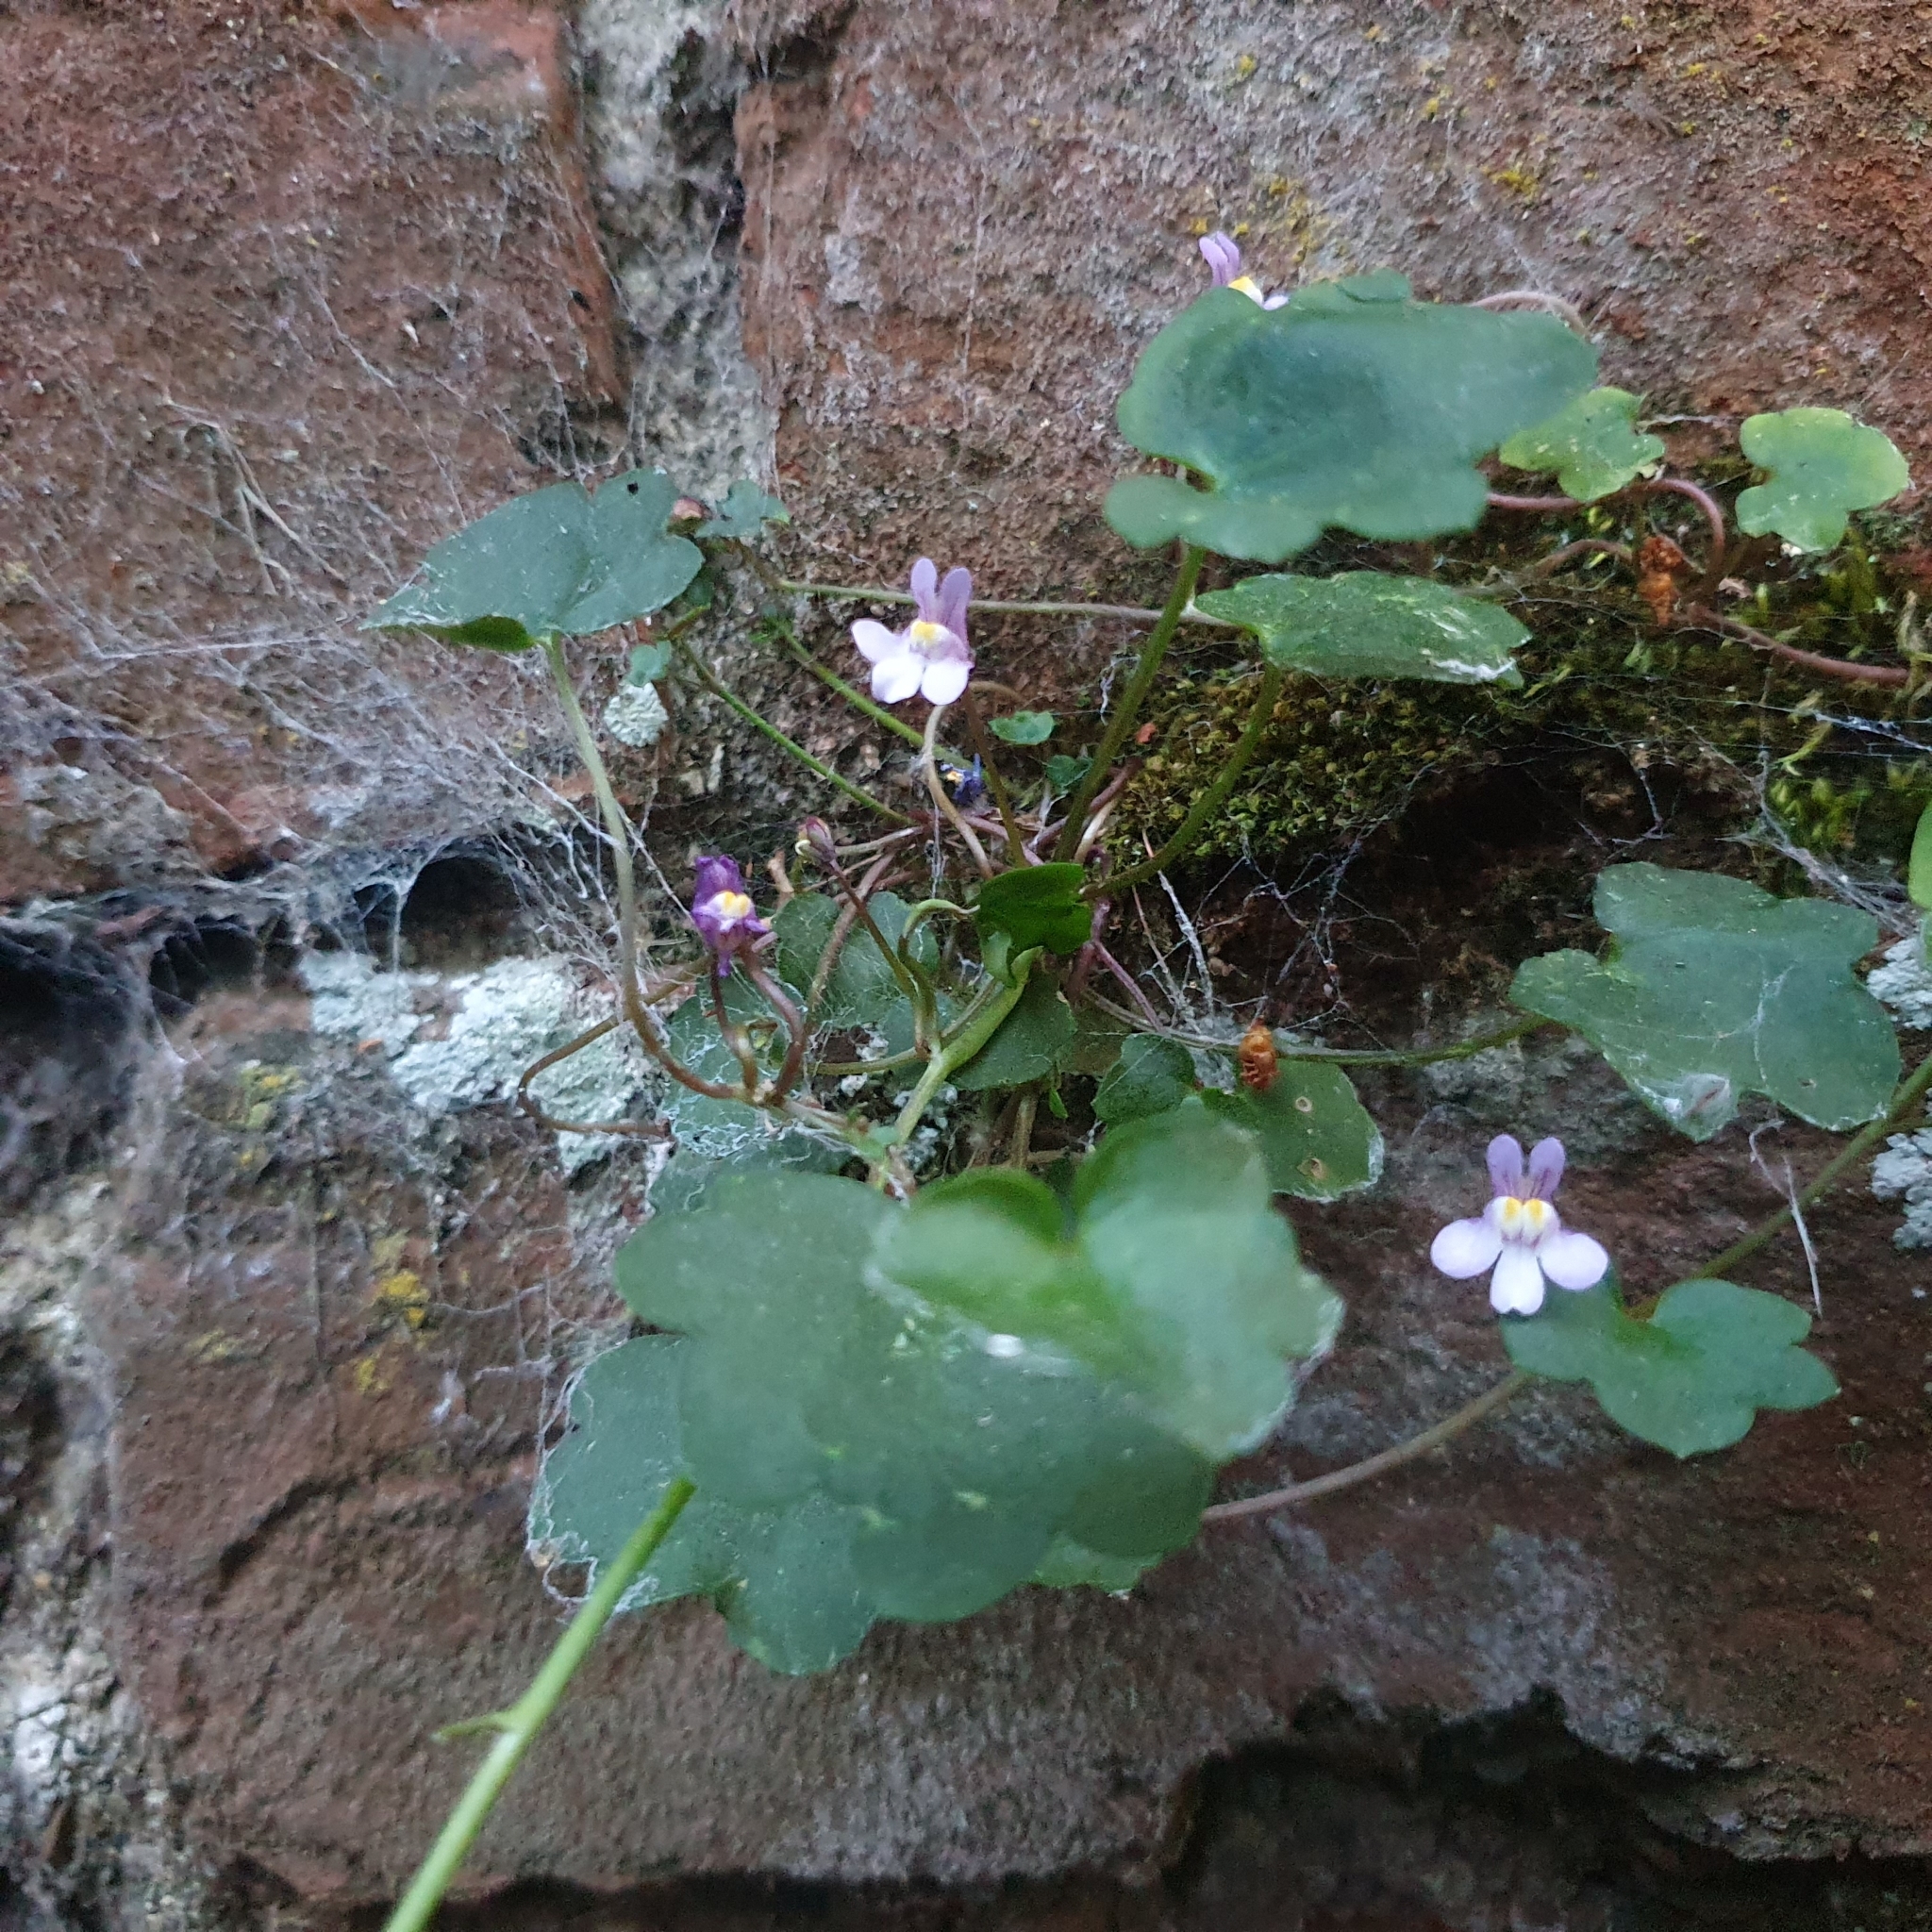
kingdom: Plantae
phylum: Tracheophyta
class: Magnoliopsida
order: Lamiales
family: Plantaginaceae
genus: Cymbalaria
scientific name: Cymbalaria muralis
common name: Ivy-leaved toadflax
